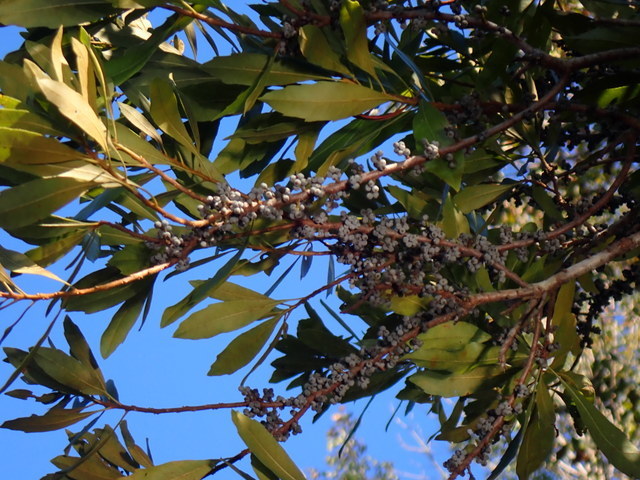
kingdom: Plantae
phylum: Tracheophyta
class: Magnoliopsida
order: Fagales
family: Myricaceae
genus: Morella
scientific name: Morella cerifera
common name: Wax myrtle
